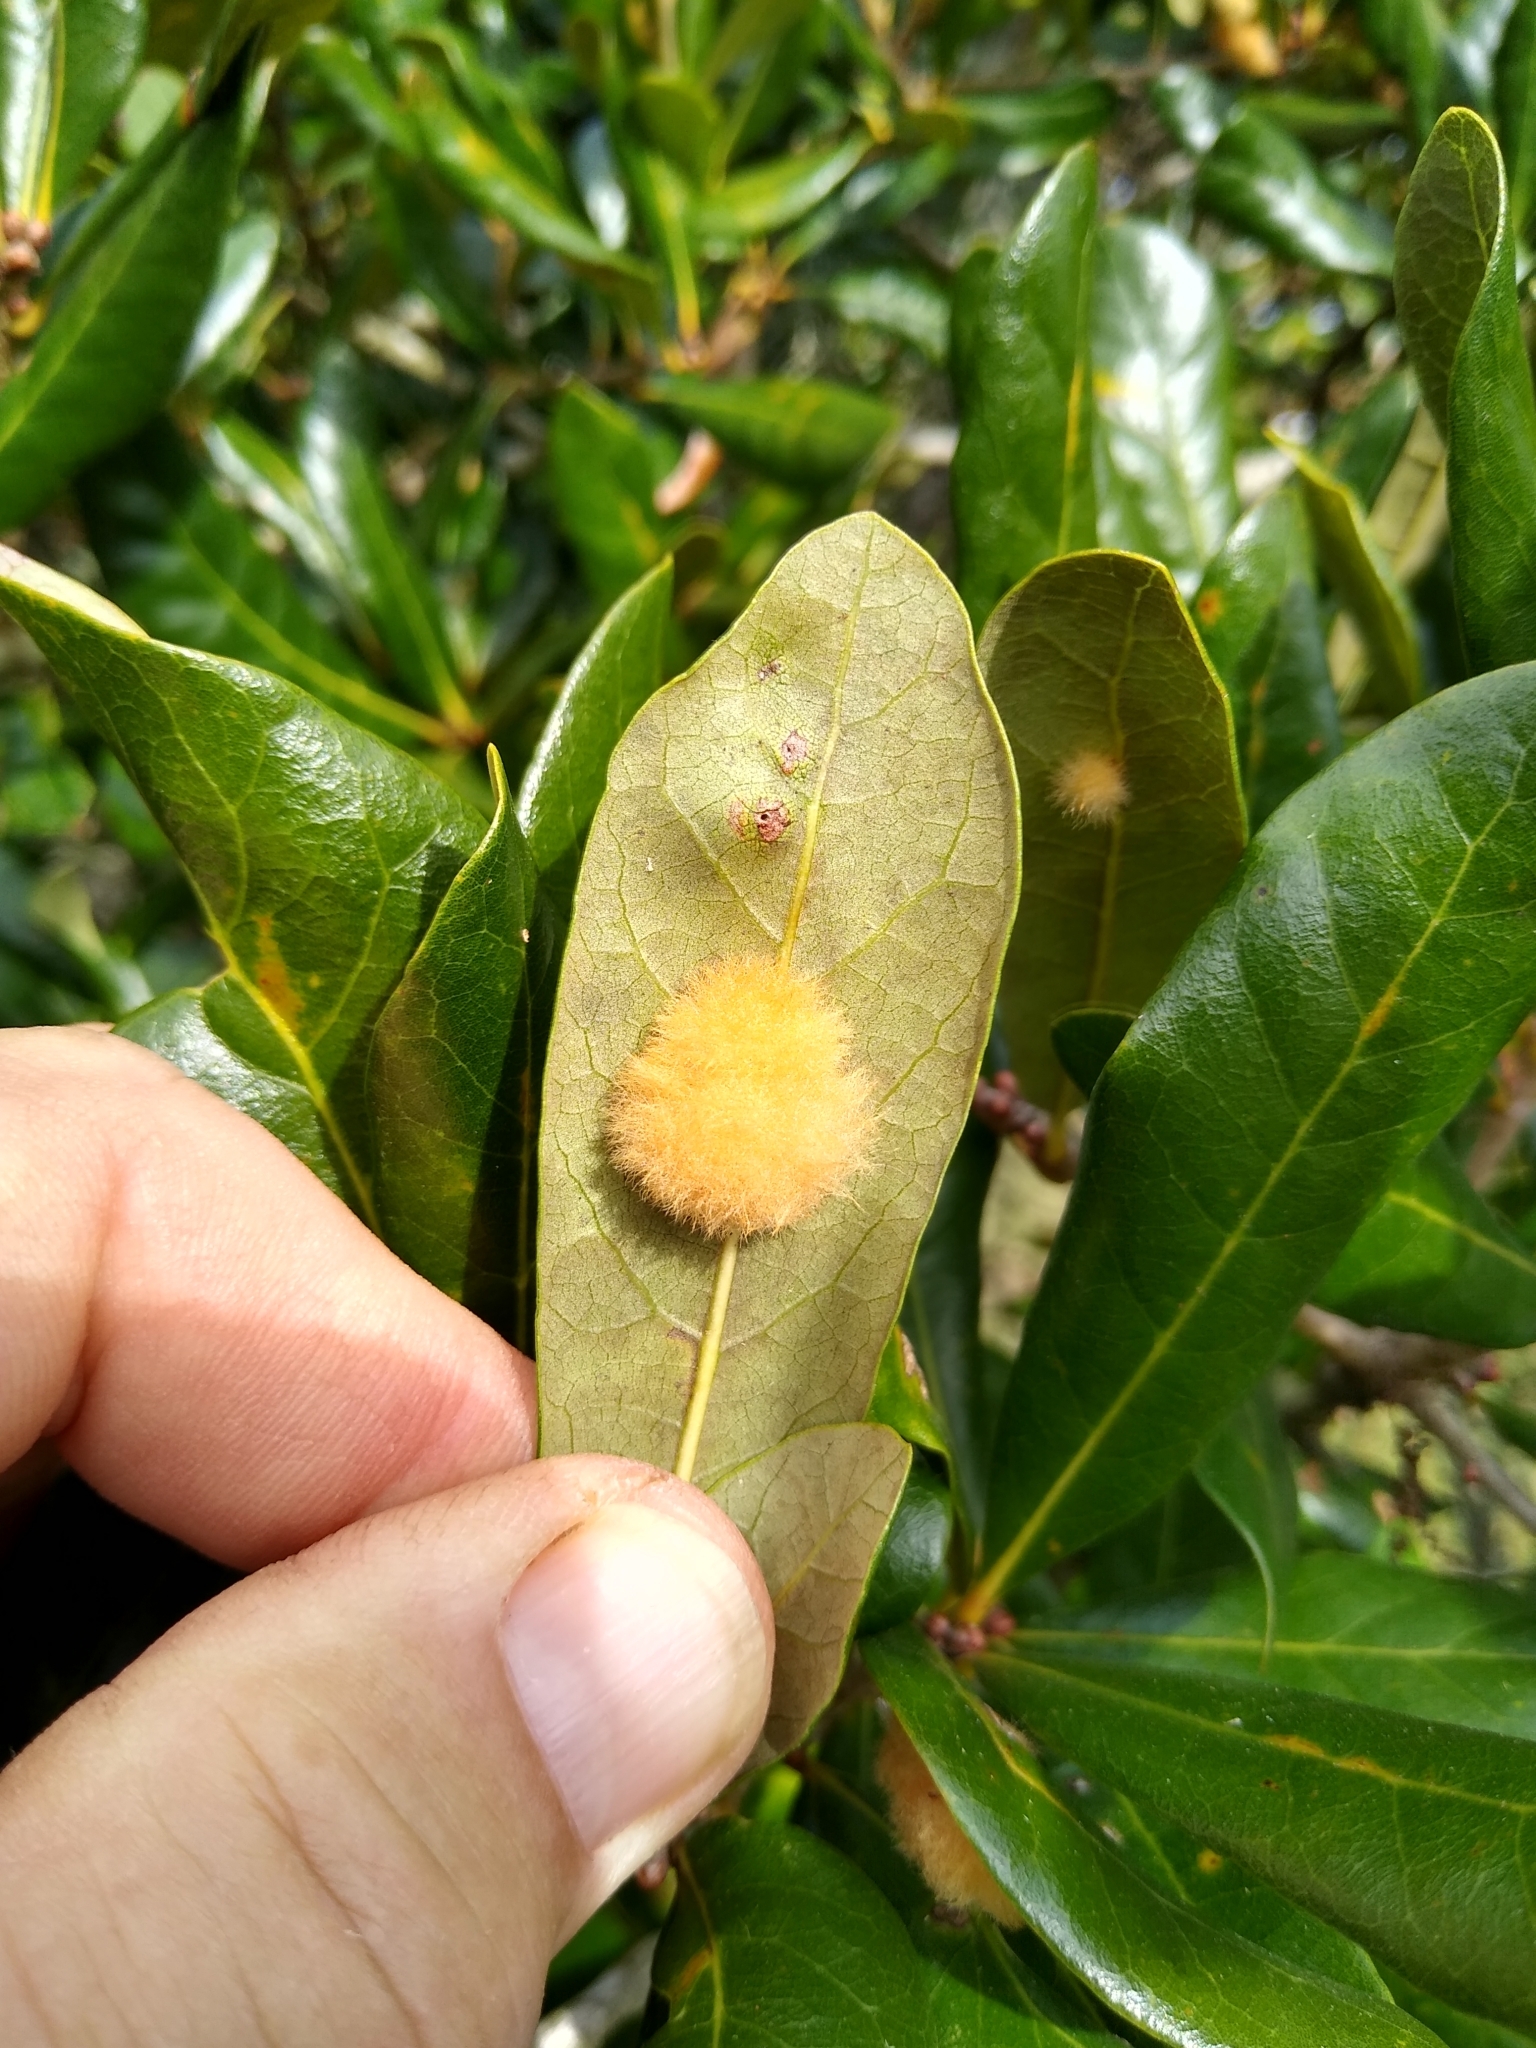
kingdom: Animalia
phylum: Arthropoda
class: Insecta
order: Hymenoptera
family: Cynipidae
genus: Andricus
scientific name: Andricus Druon quercuslanigerum
